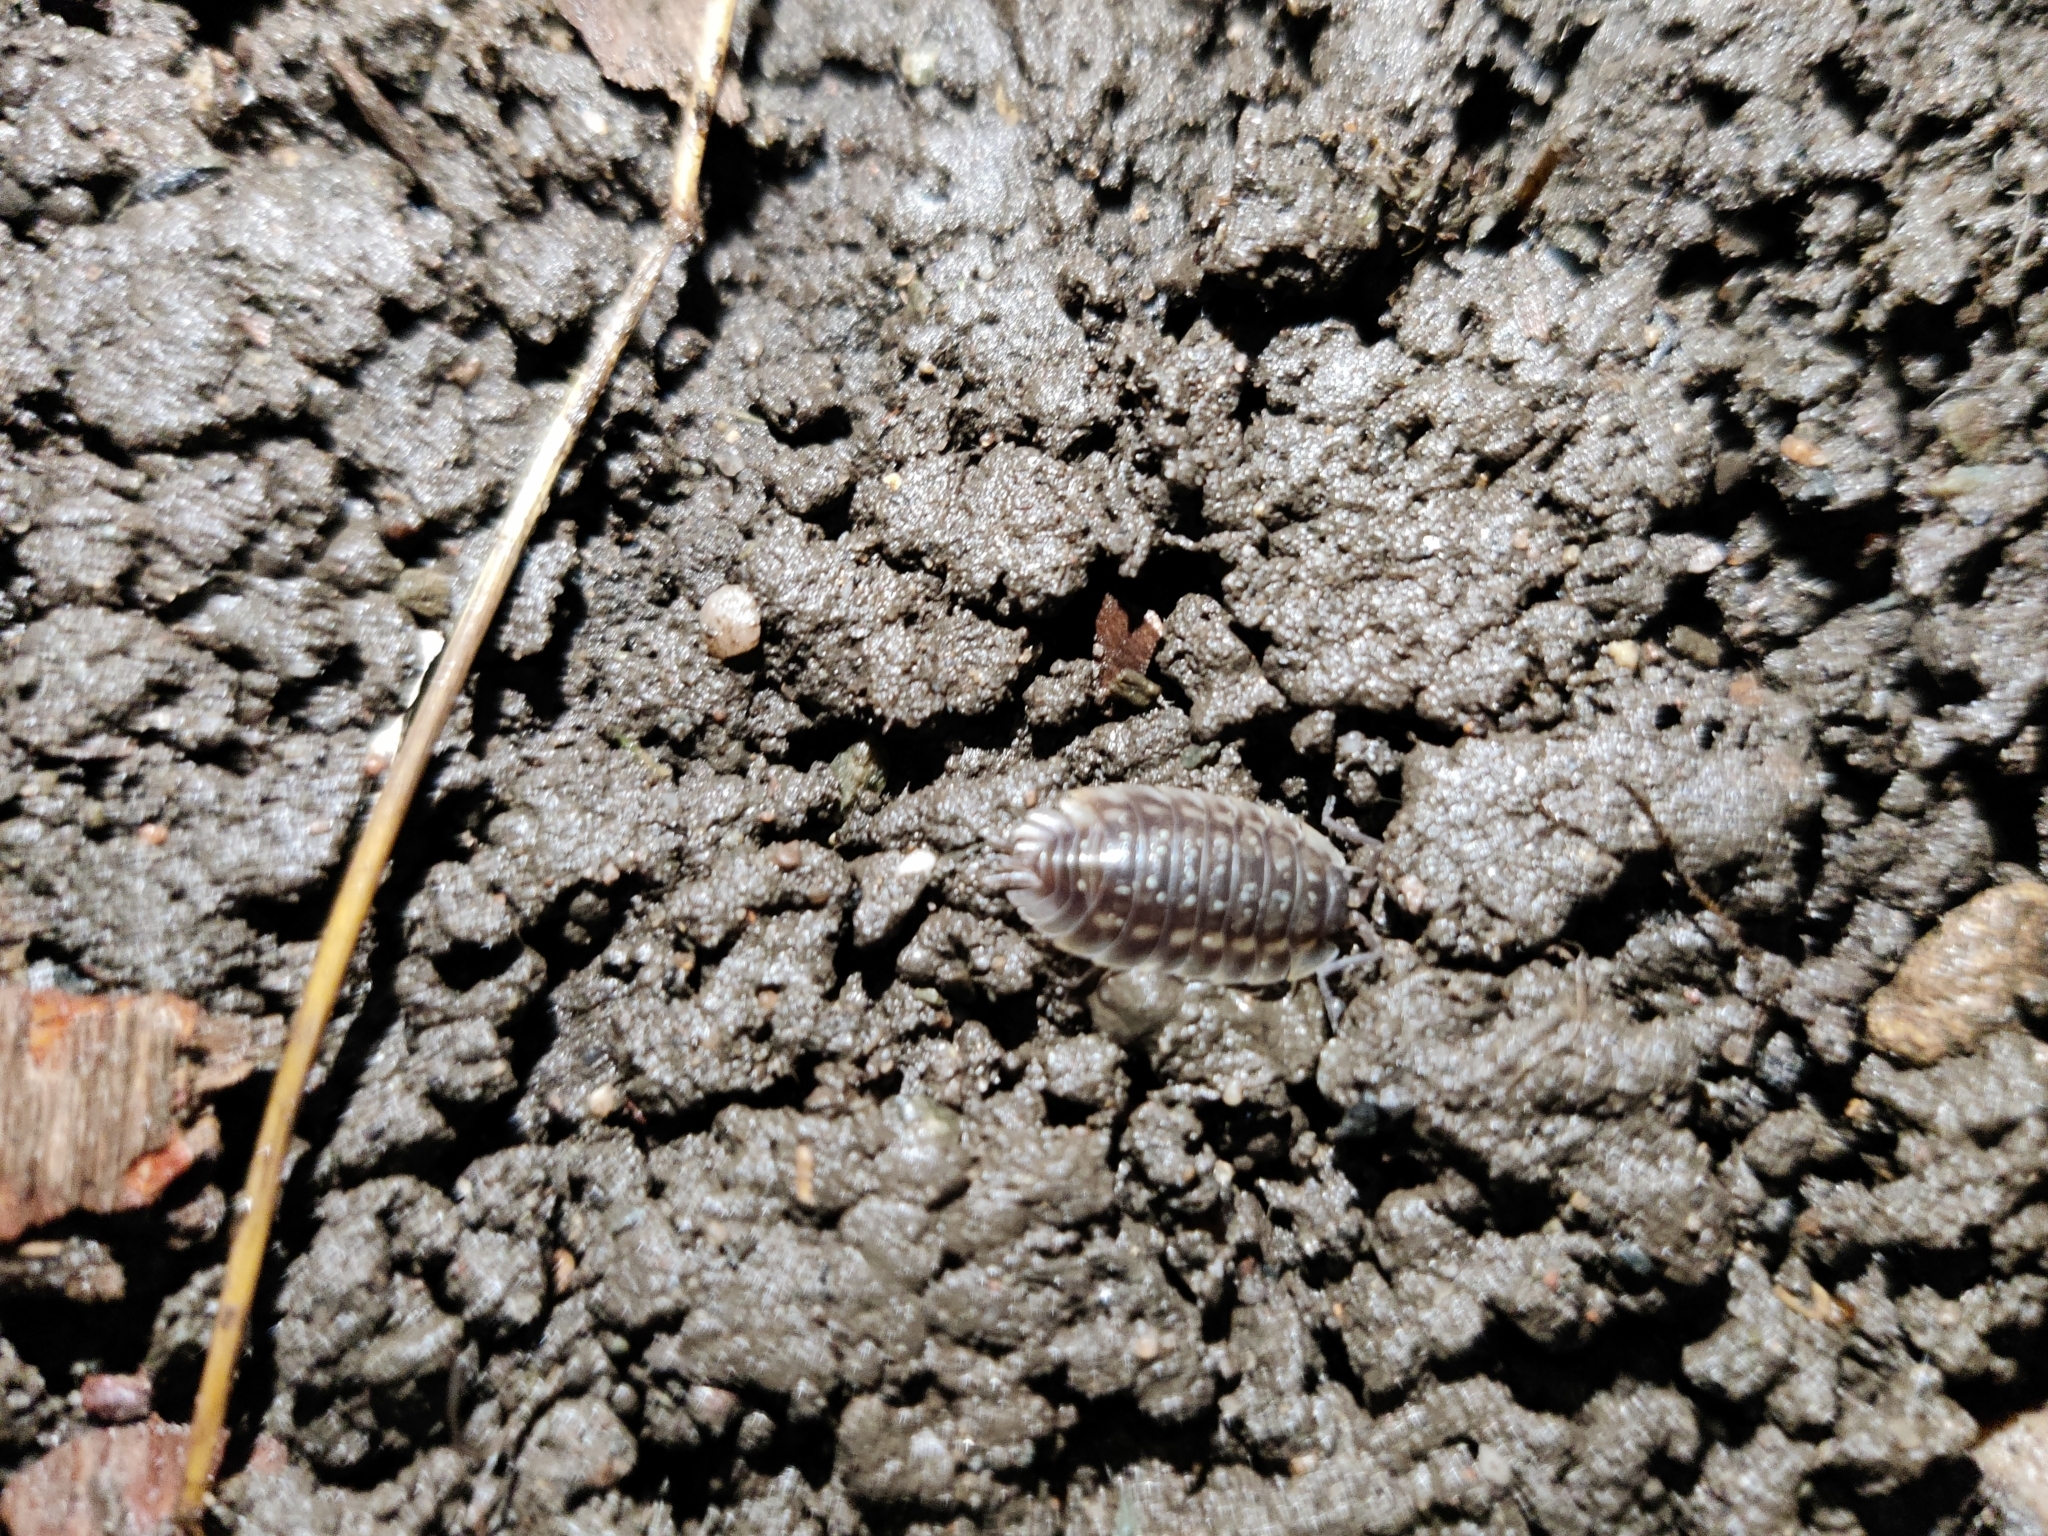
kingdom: Animalia
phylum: Arthropoda
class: Malacostraca
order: Isopoda
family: Oniscidae
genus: Oniscus
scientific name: Oniscus asellus
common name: Common shiny woodlouse
